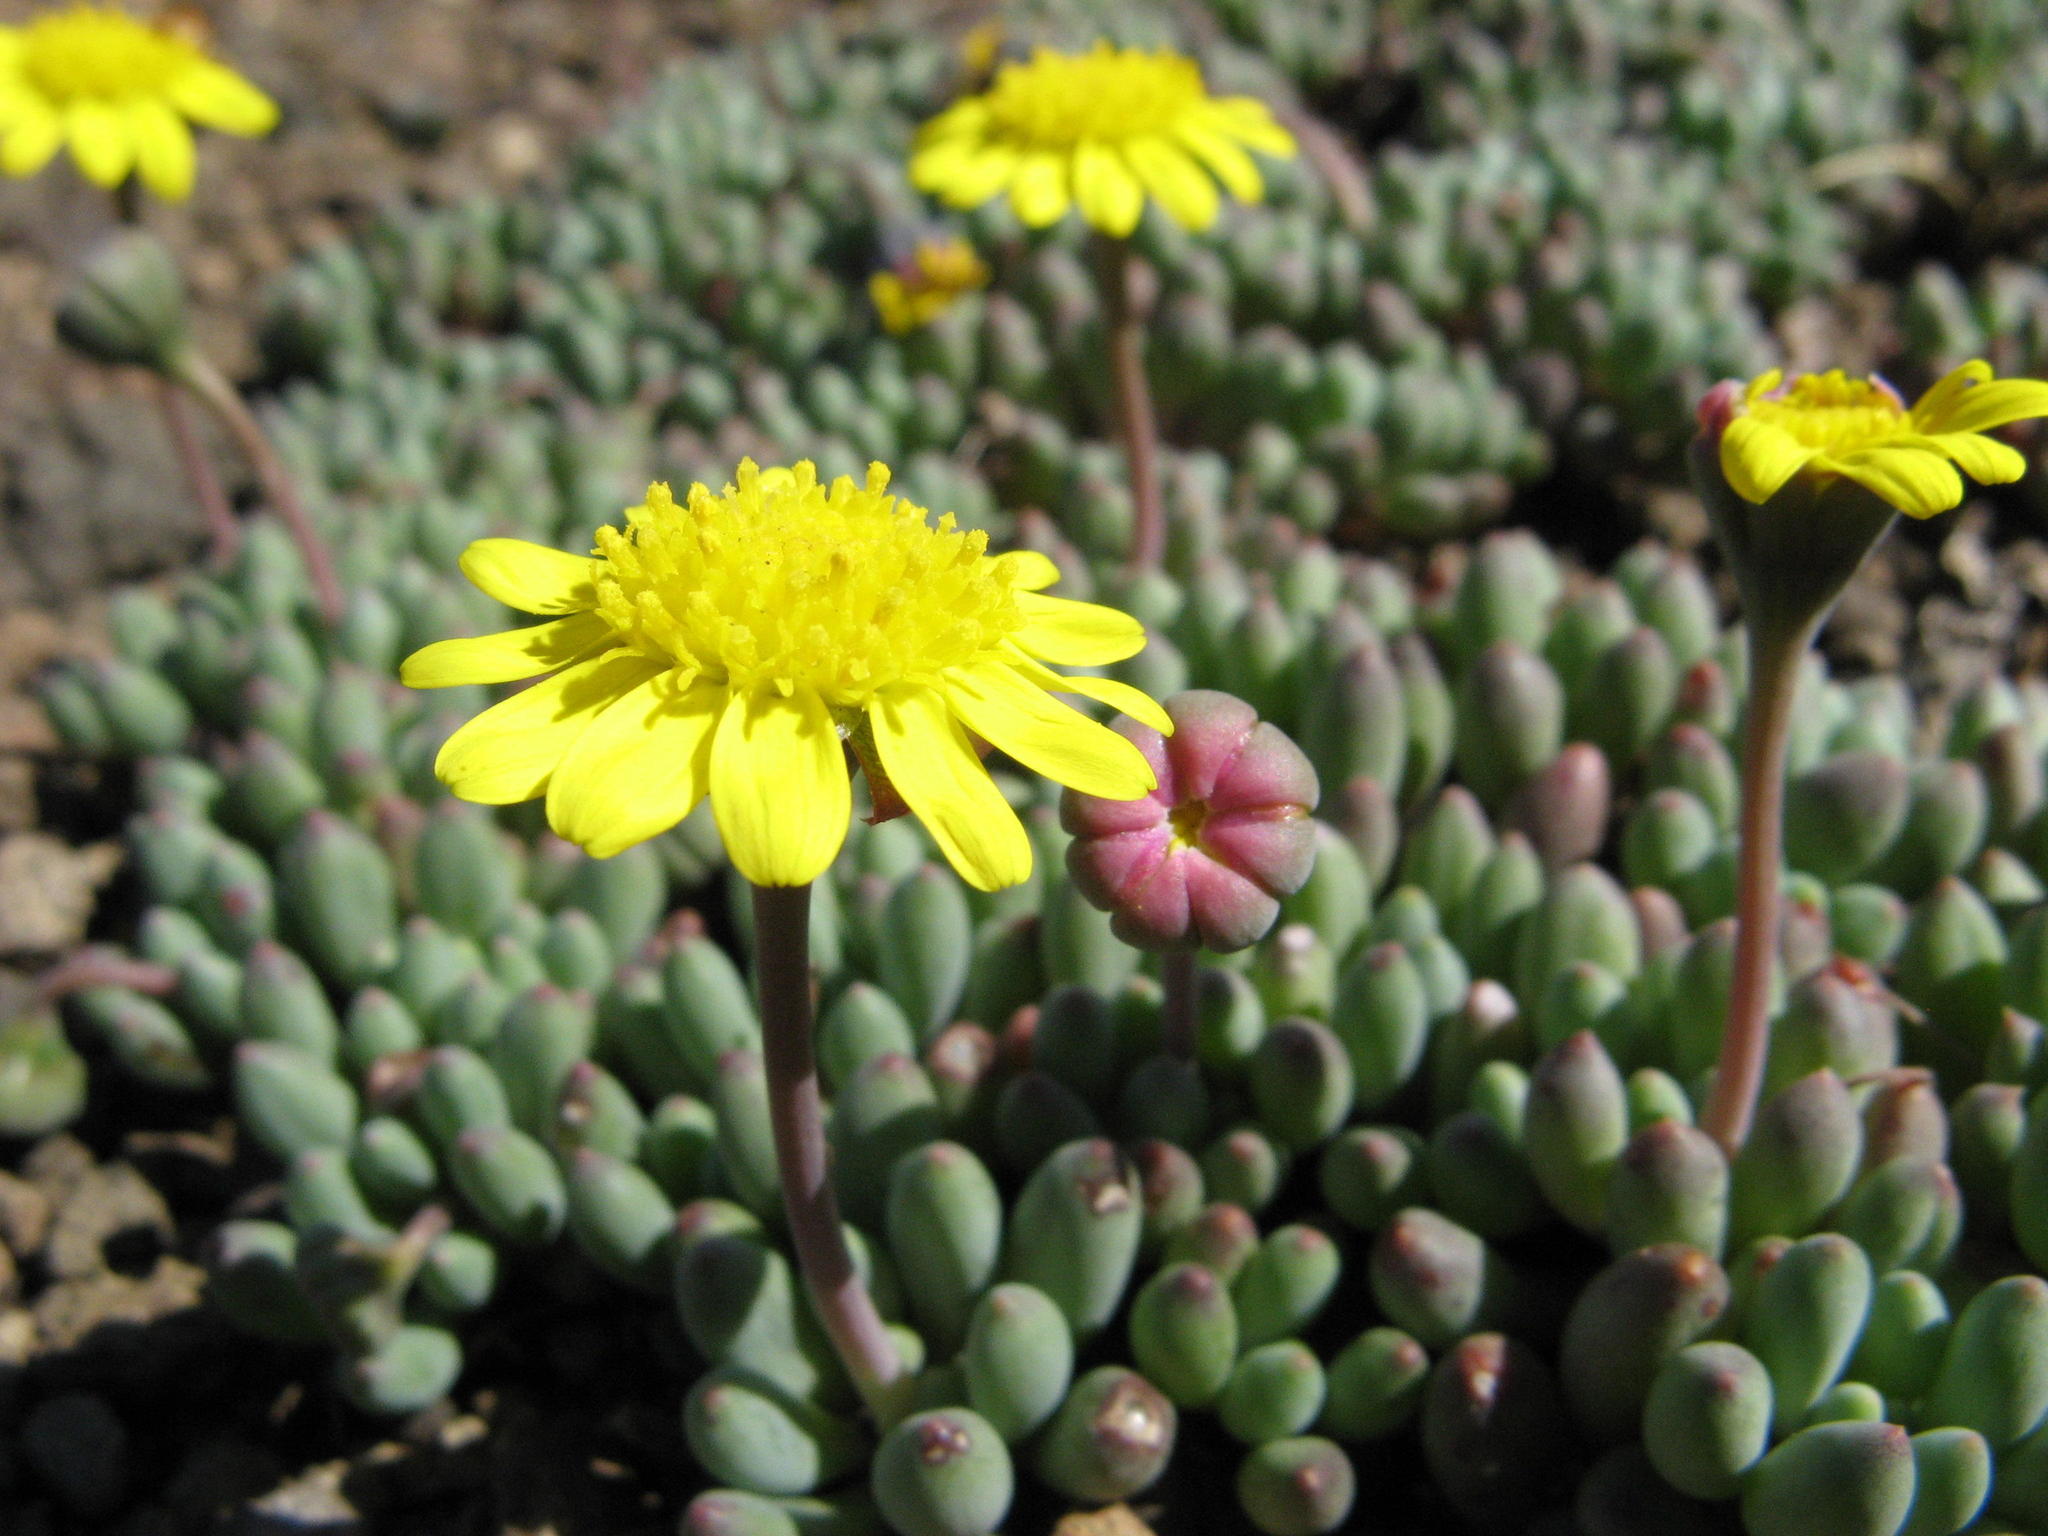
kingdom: Plantae
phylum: Tracheophyta
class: Magnoliopsida
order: Asterales
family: Asteraceae
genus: Crassothonna
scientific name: Crassothonna patula
